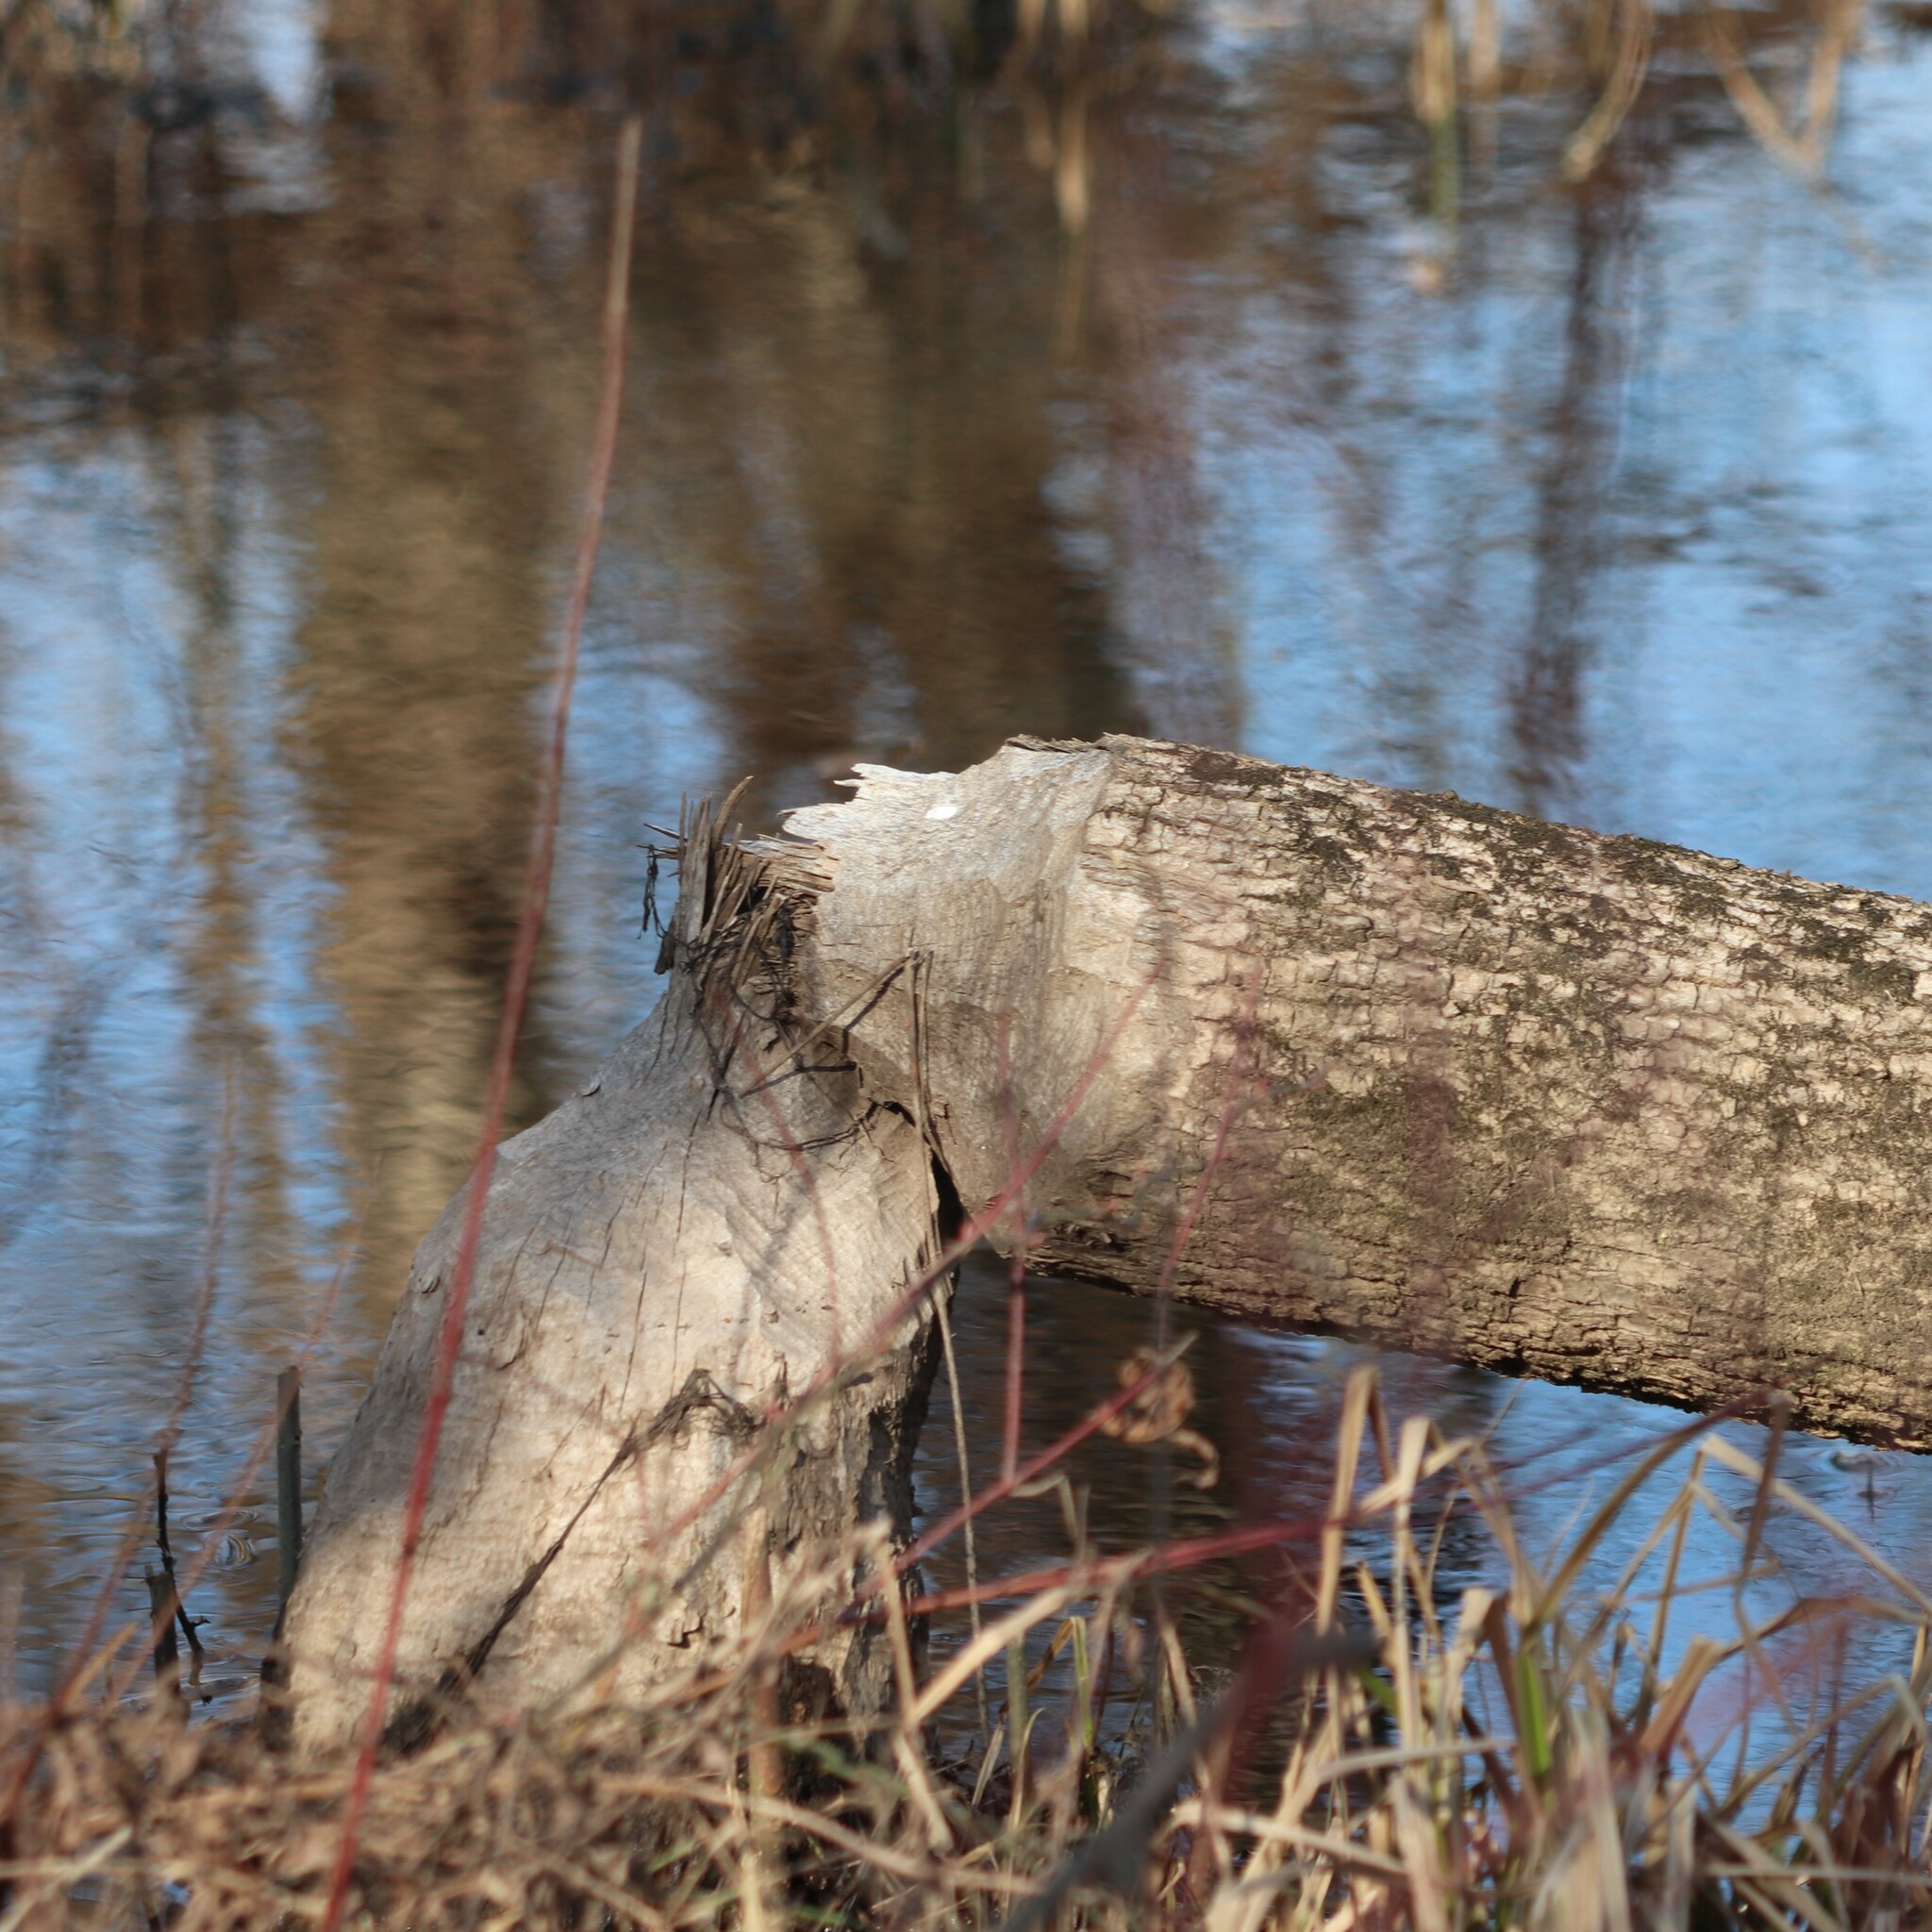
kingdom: Animalia
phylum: Chordata
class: Mammalia
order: Rodentia
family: Castoridae
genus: Castor
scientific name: Castor canadensis
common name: American beaver
